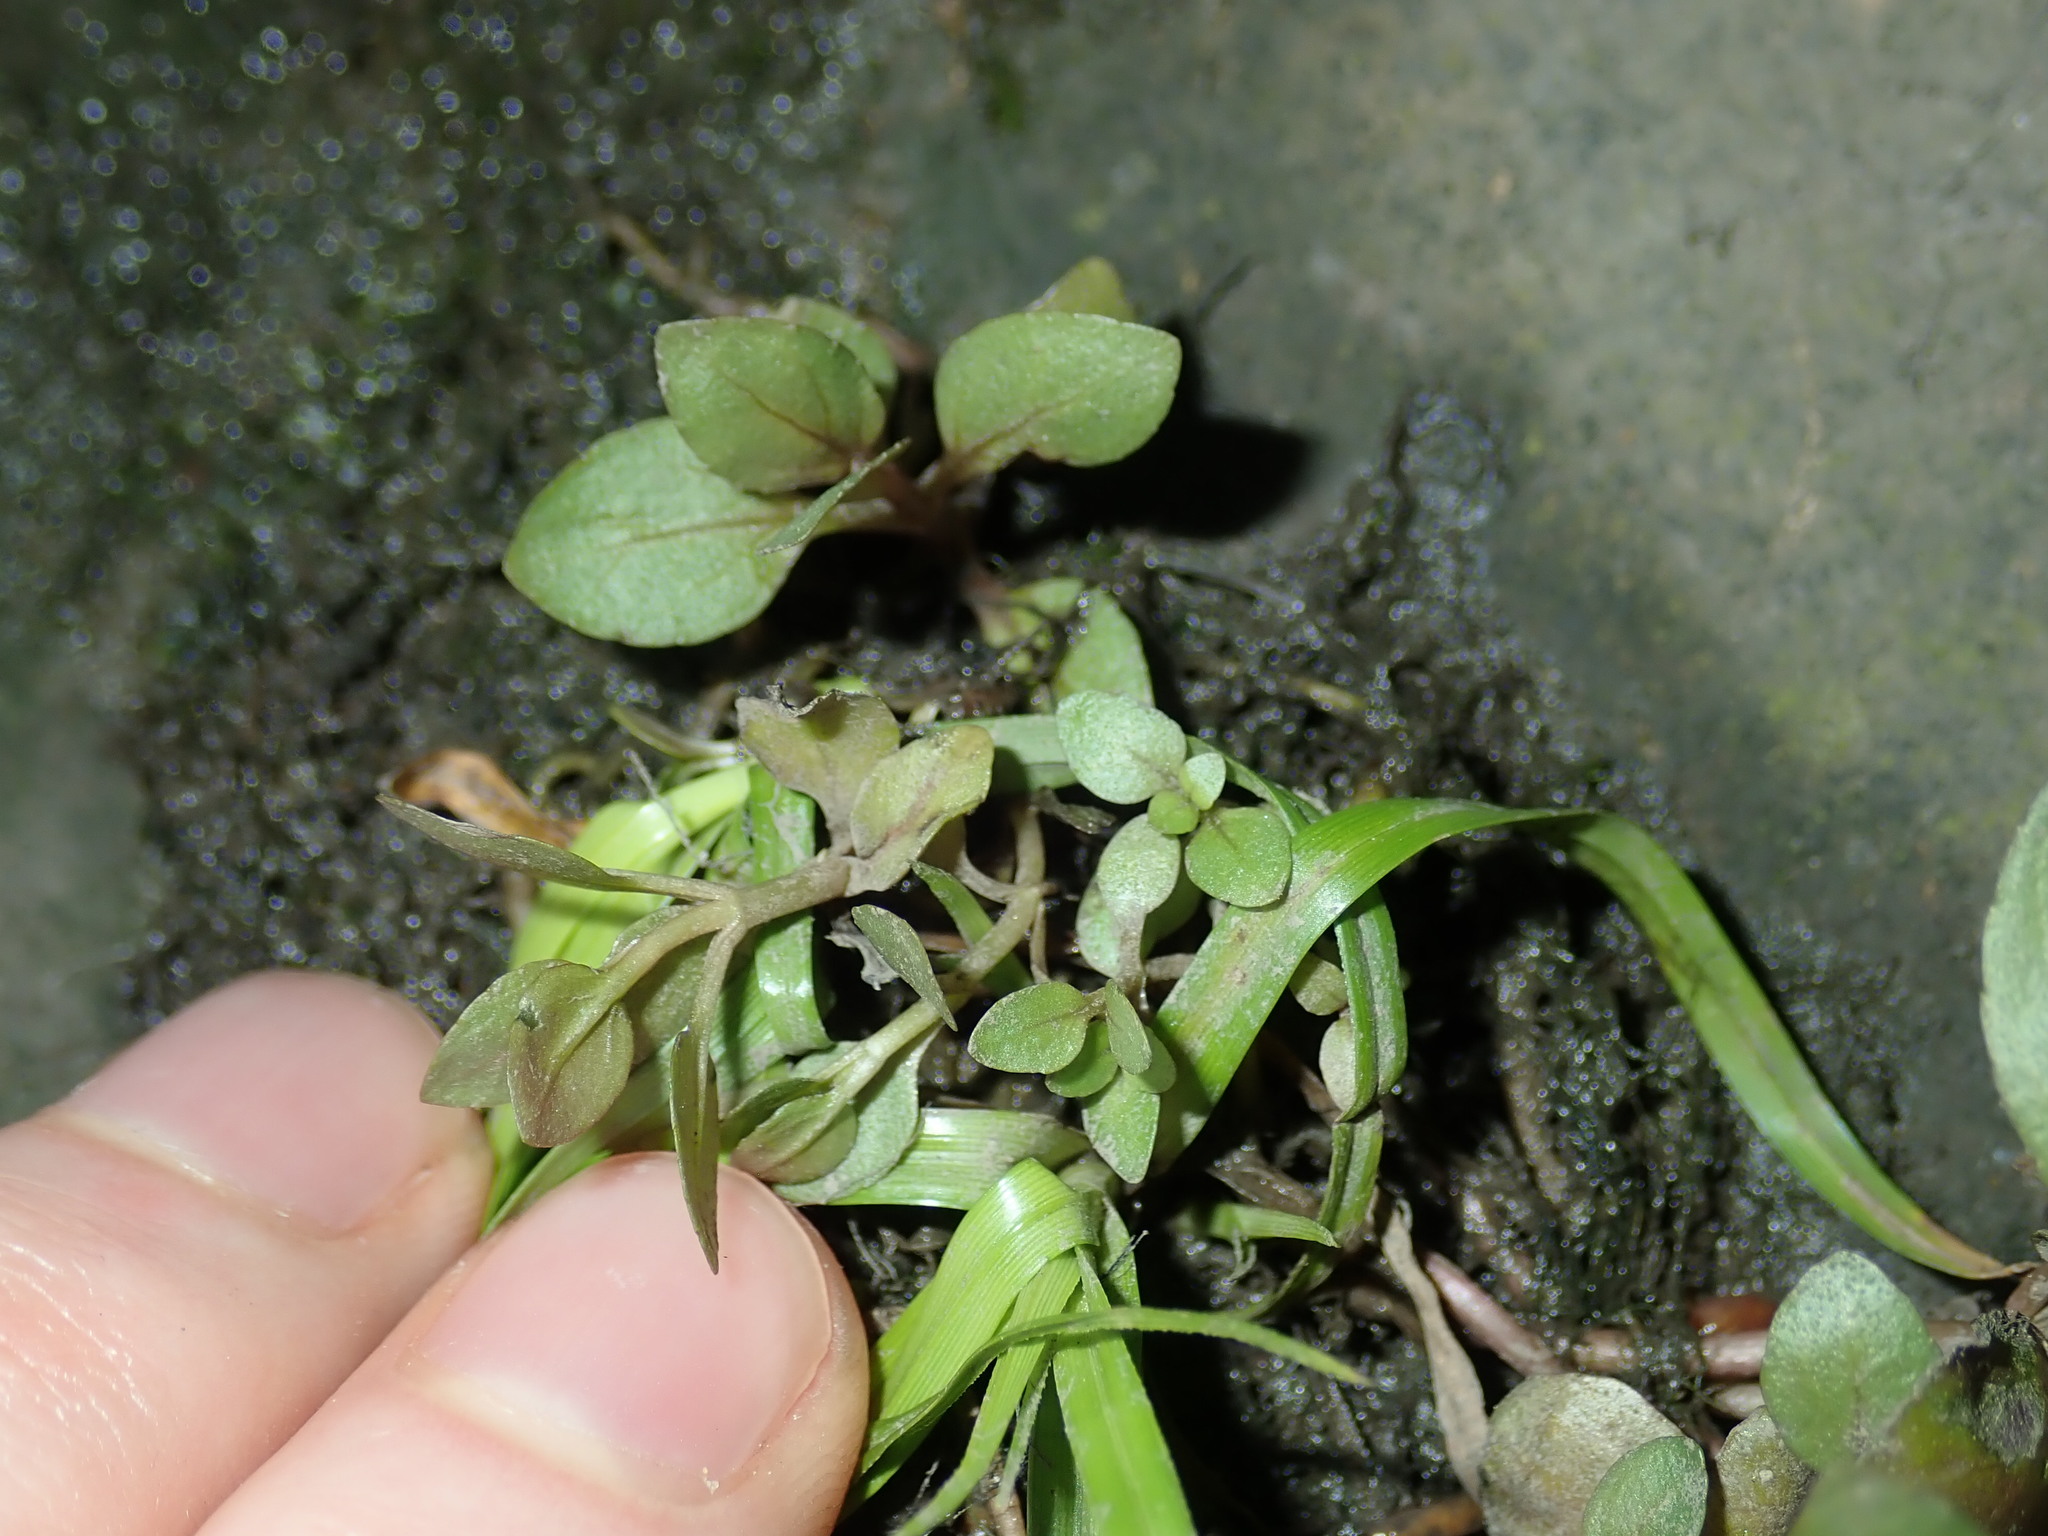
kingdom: Plantae
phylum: Tracheophyta
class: Magnoliopsida
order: Lamiales
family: Plantaginaceae
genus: Veronica
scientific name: Veronica anagallis-aquatica
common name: Water speedwell
